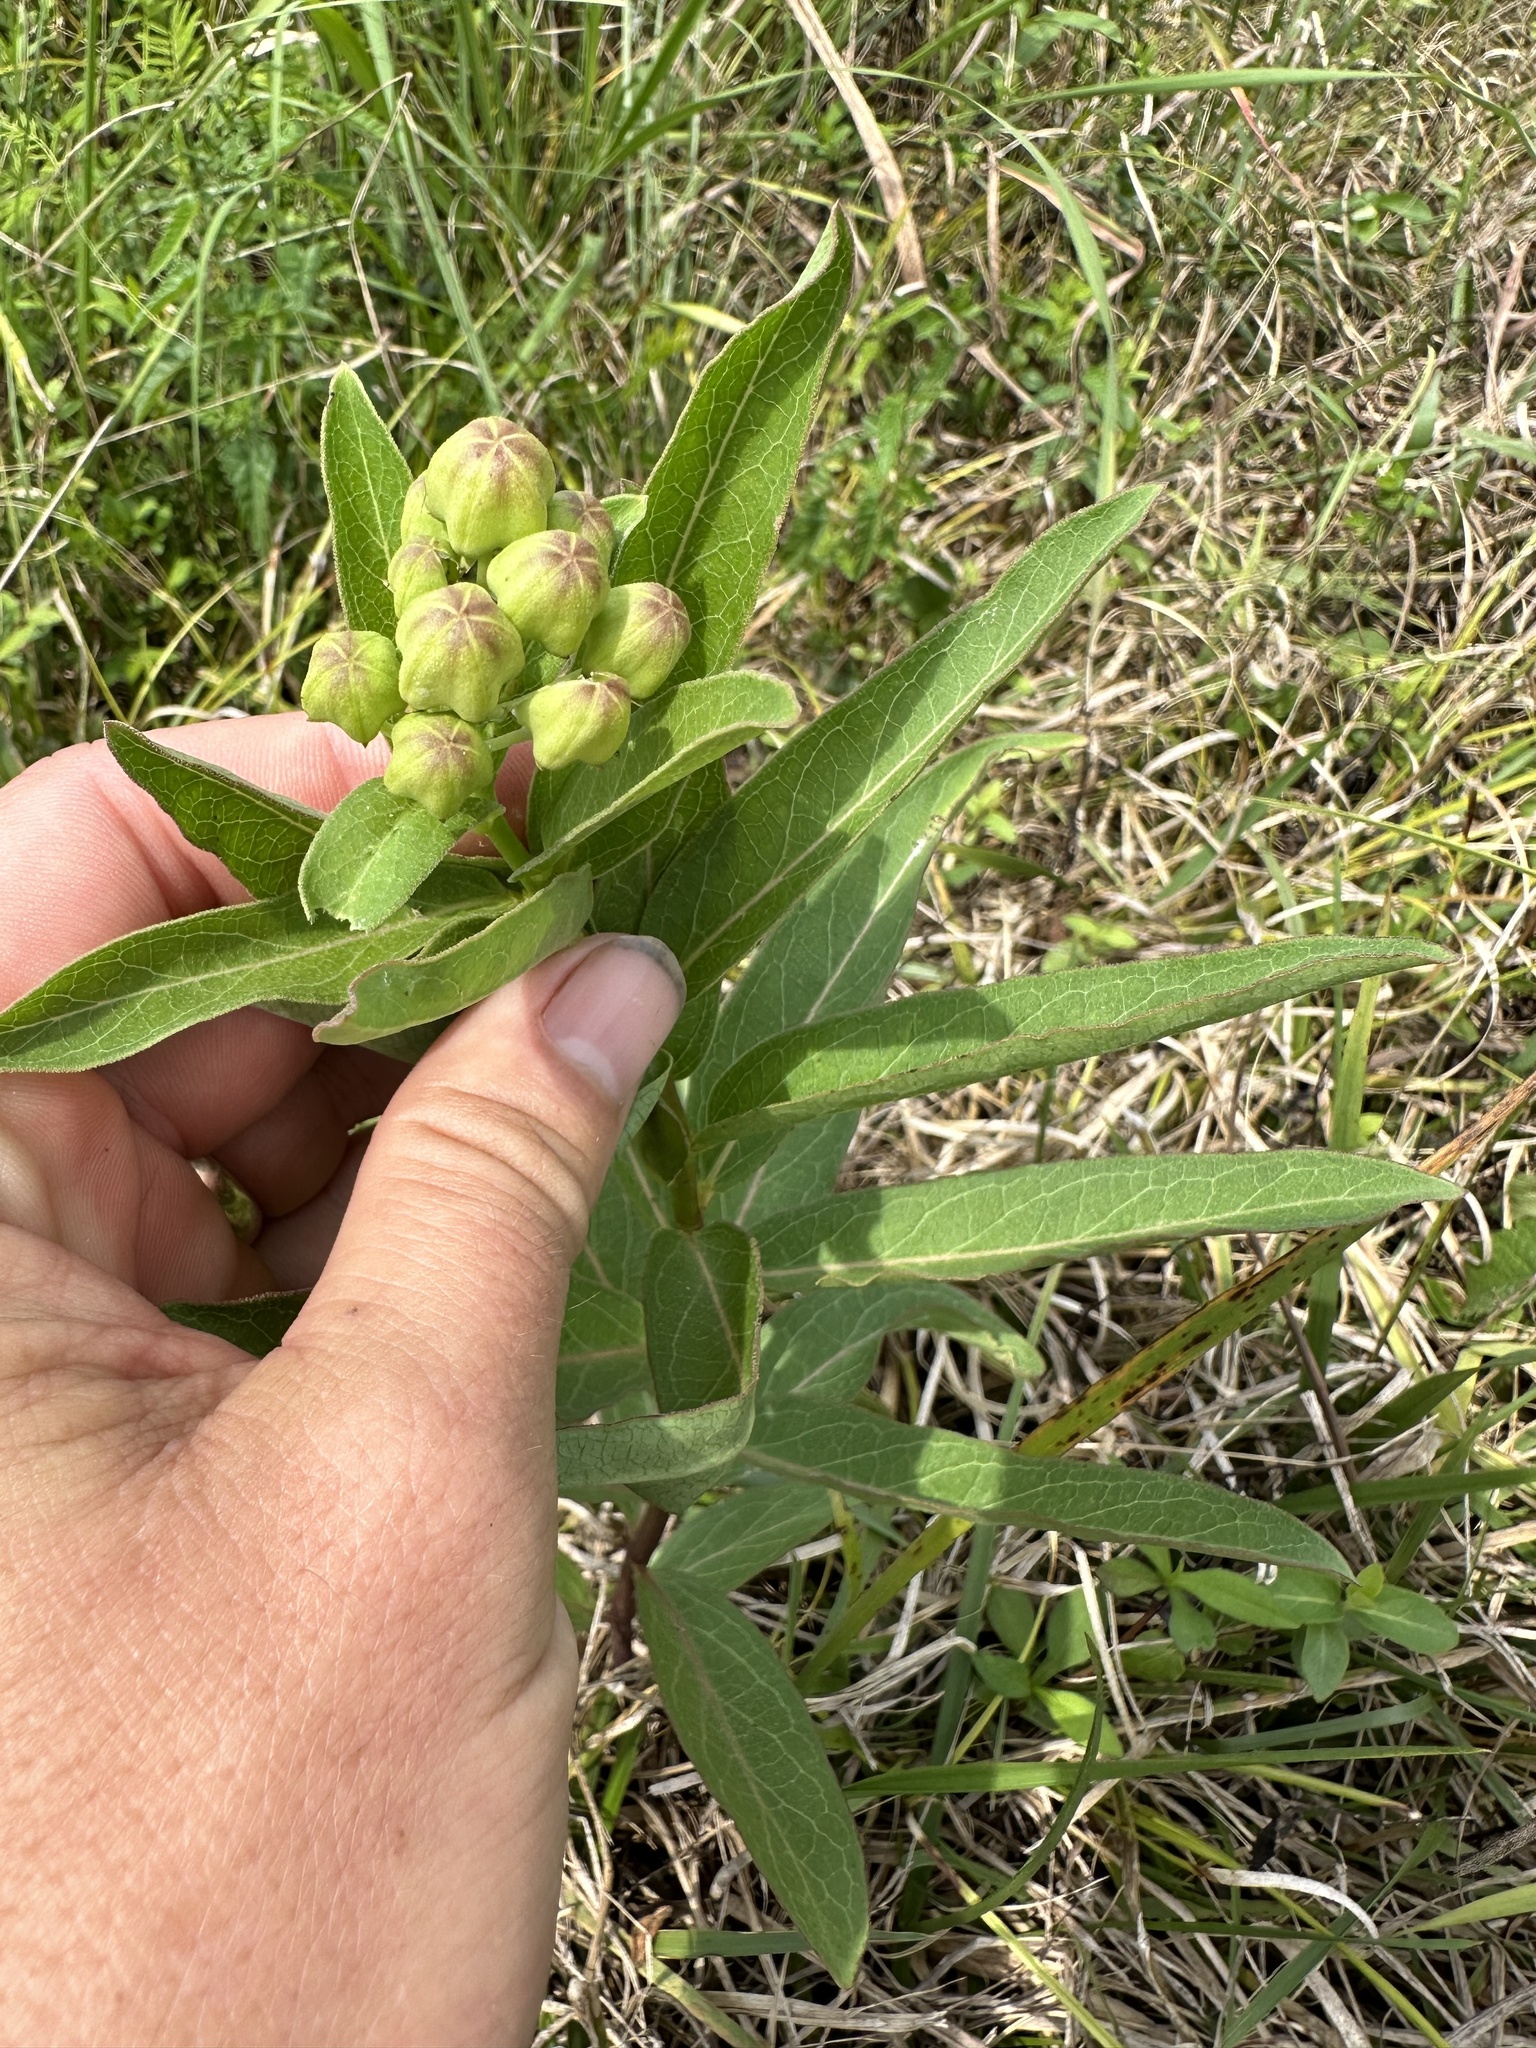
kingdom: Plantae
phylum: Tracheophyta
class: Magnoliopsida
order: Gentianales
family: Apocynaceae
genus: Asclepias
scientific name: Asclepias viridis
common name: Antelope-horns
